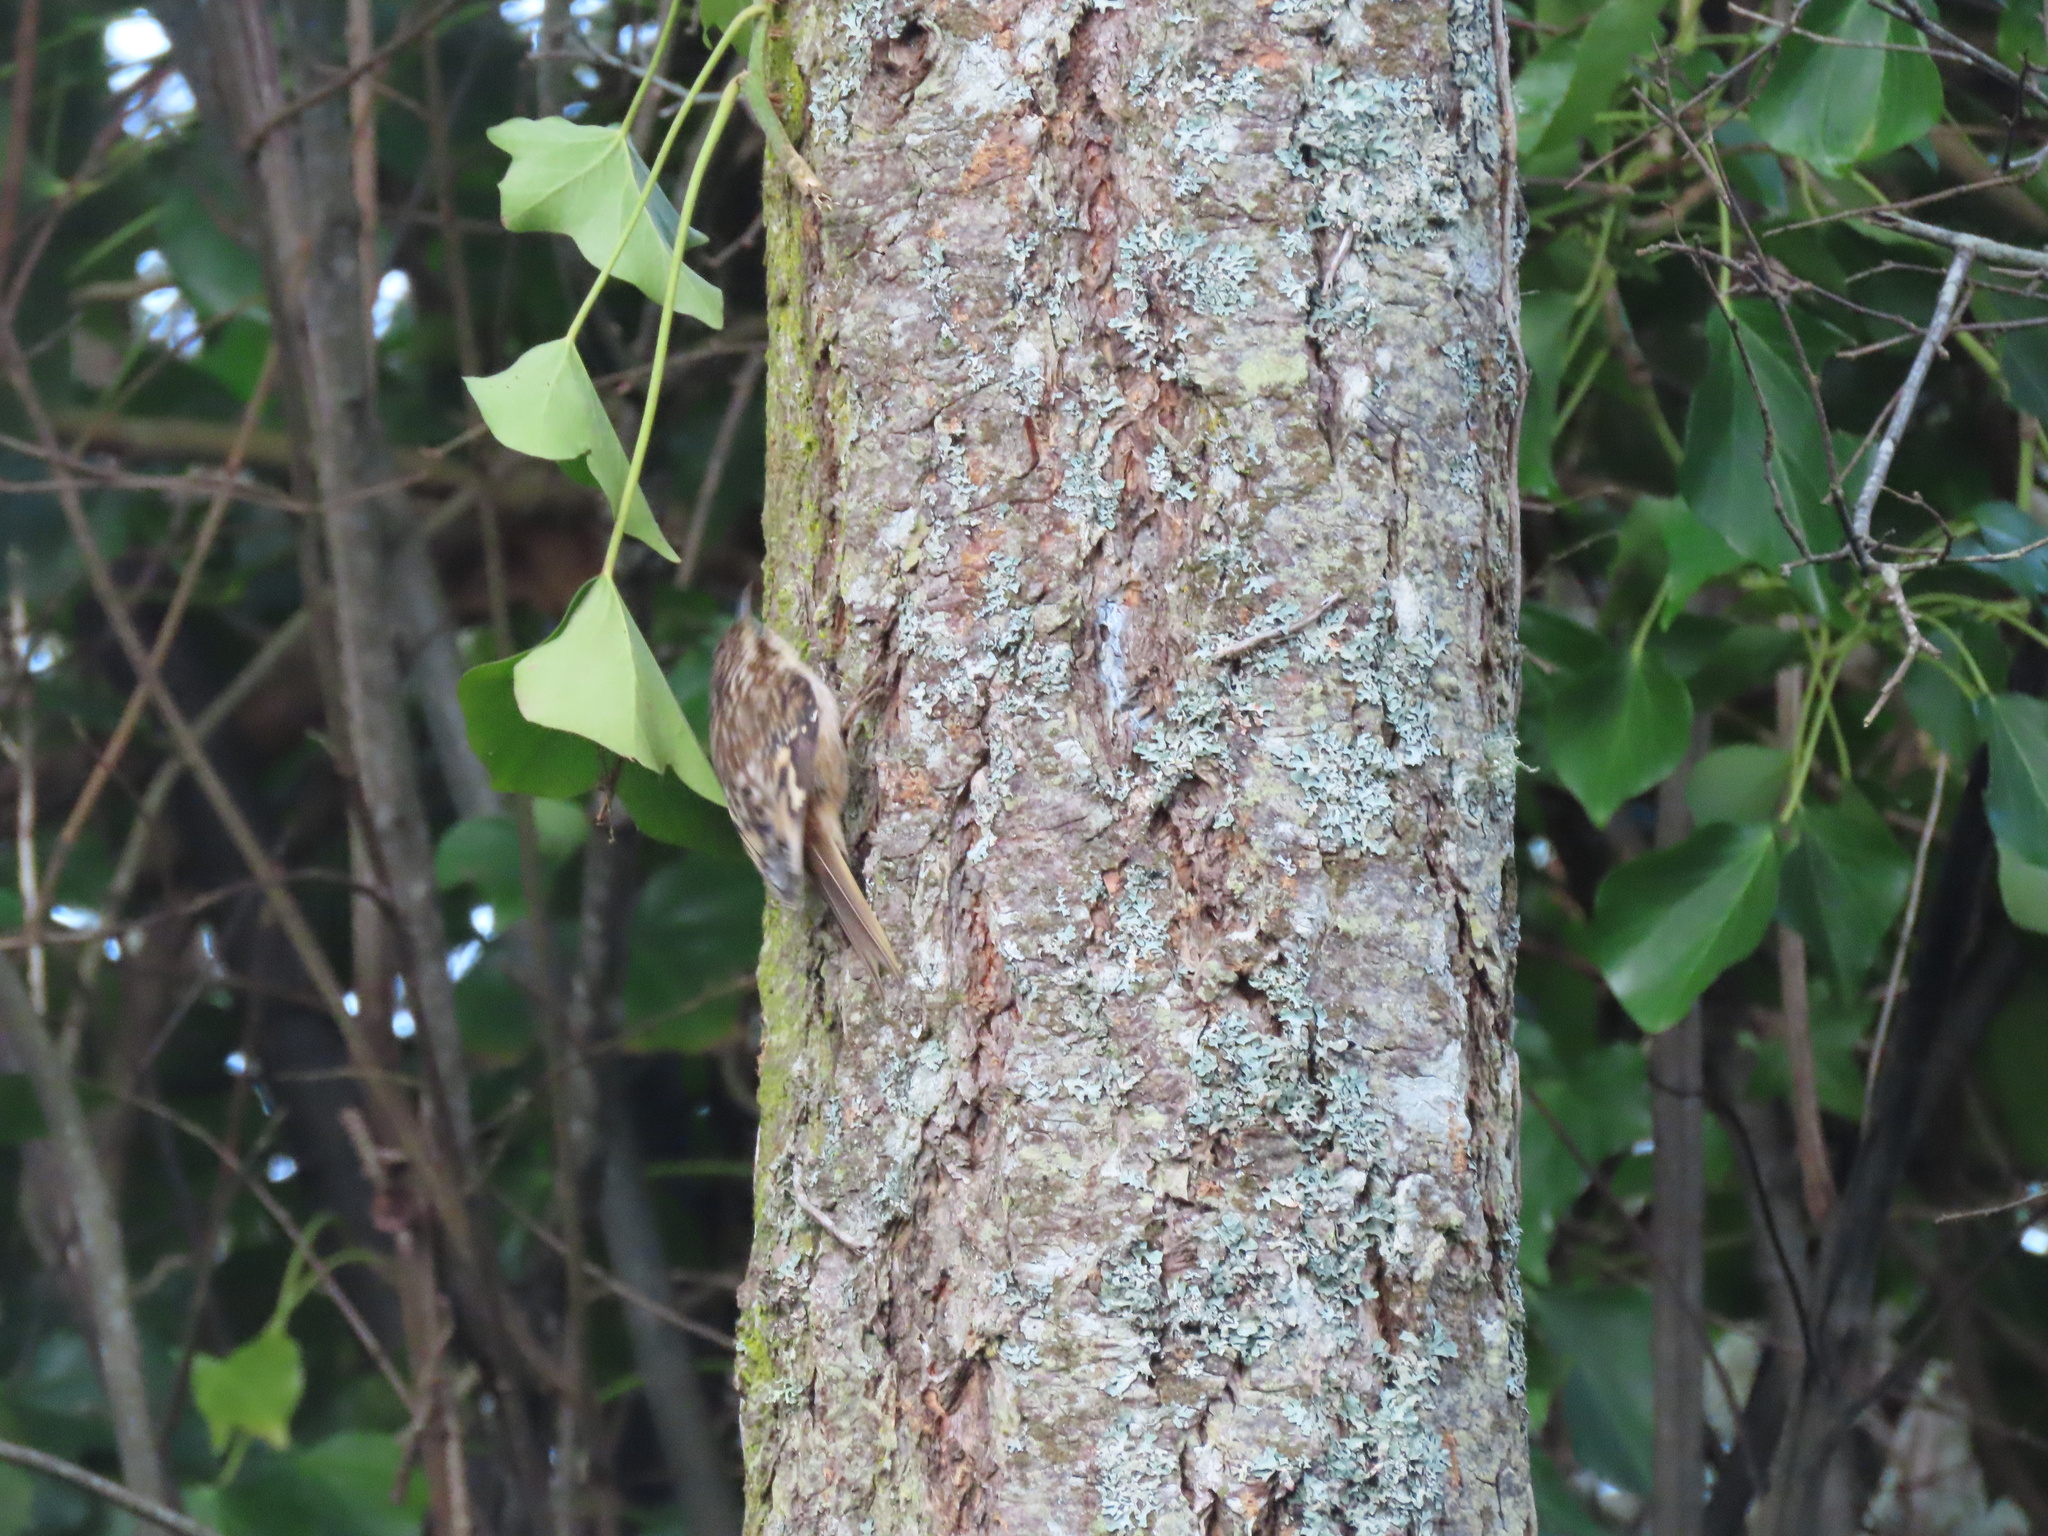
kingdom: Animalia
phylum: Chordata
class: Aves
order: Passeriformes
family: Certhiidae
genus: Certhia
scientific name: Certhia americana
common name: Brown creeper
